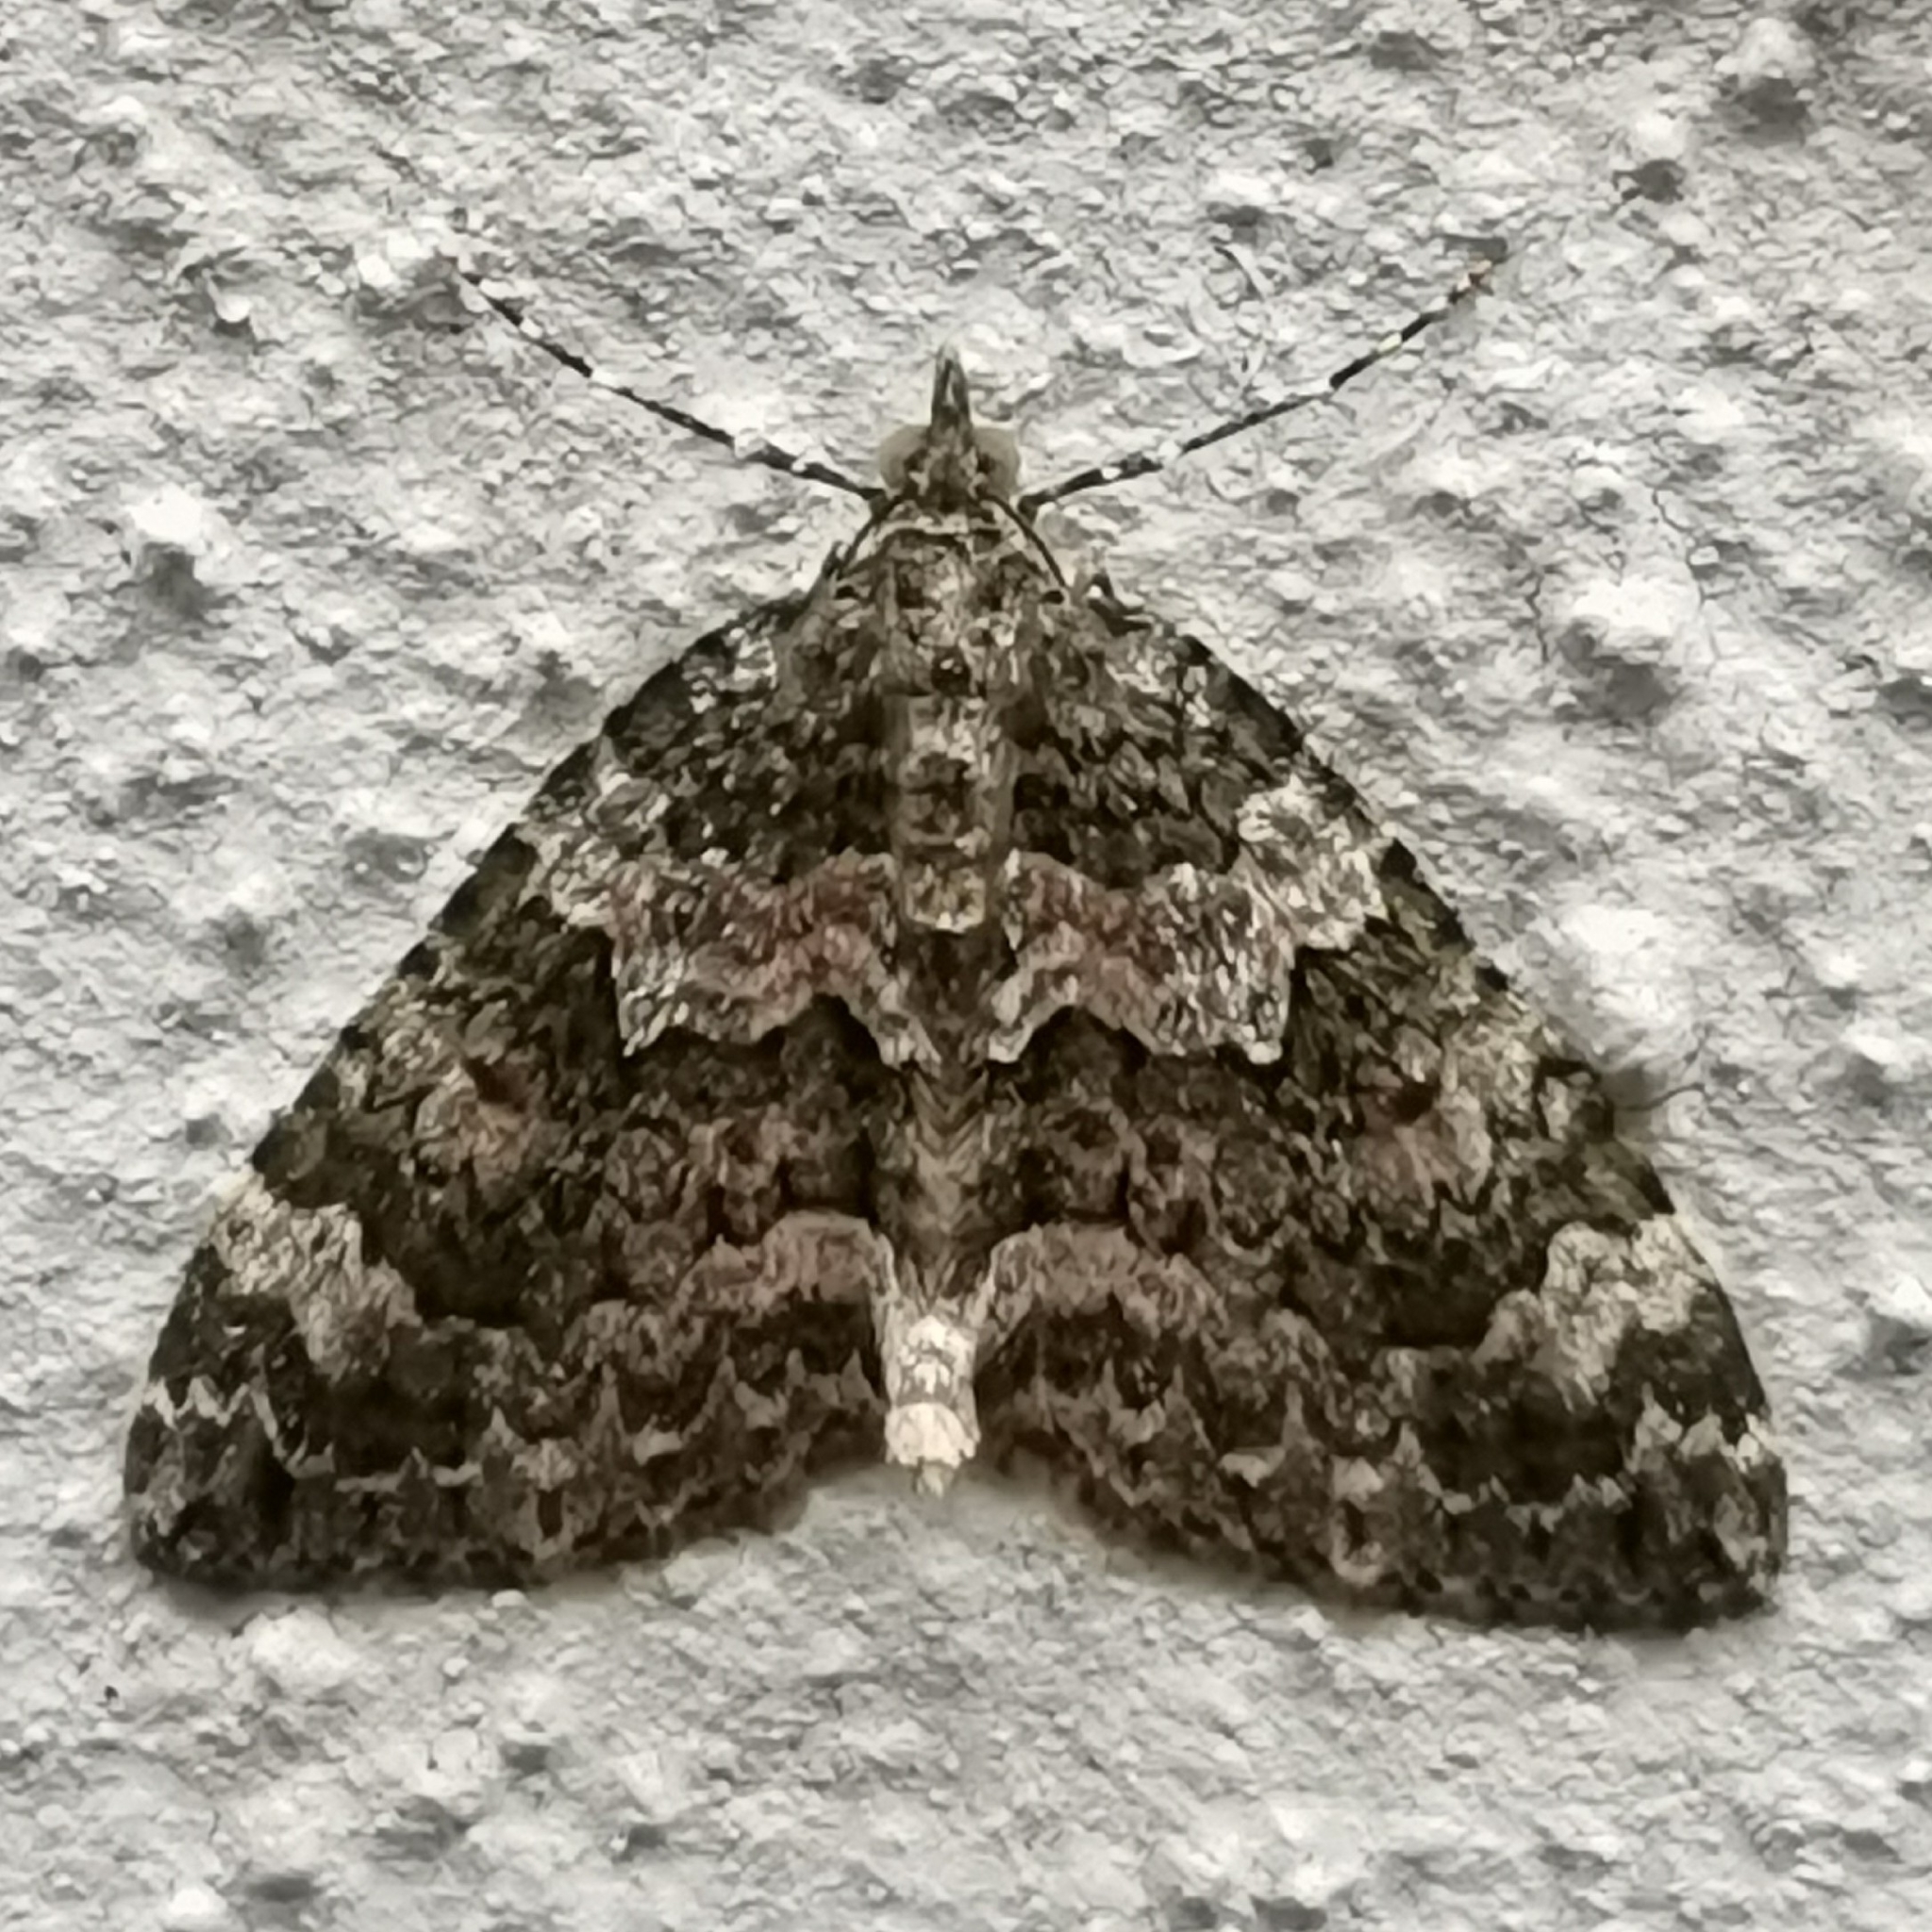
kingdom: Animalia
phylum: Arthropoda
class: Insecta
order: Lepidoptera
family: Geometridae
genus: Chloroclysta
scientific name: Chloroclysta miata
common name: Autumn green carpet
